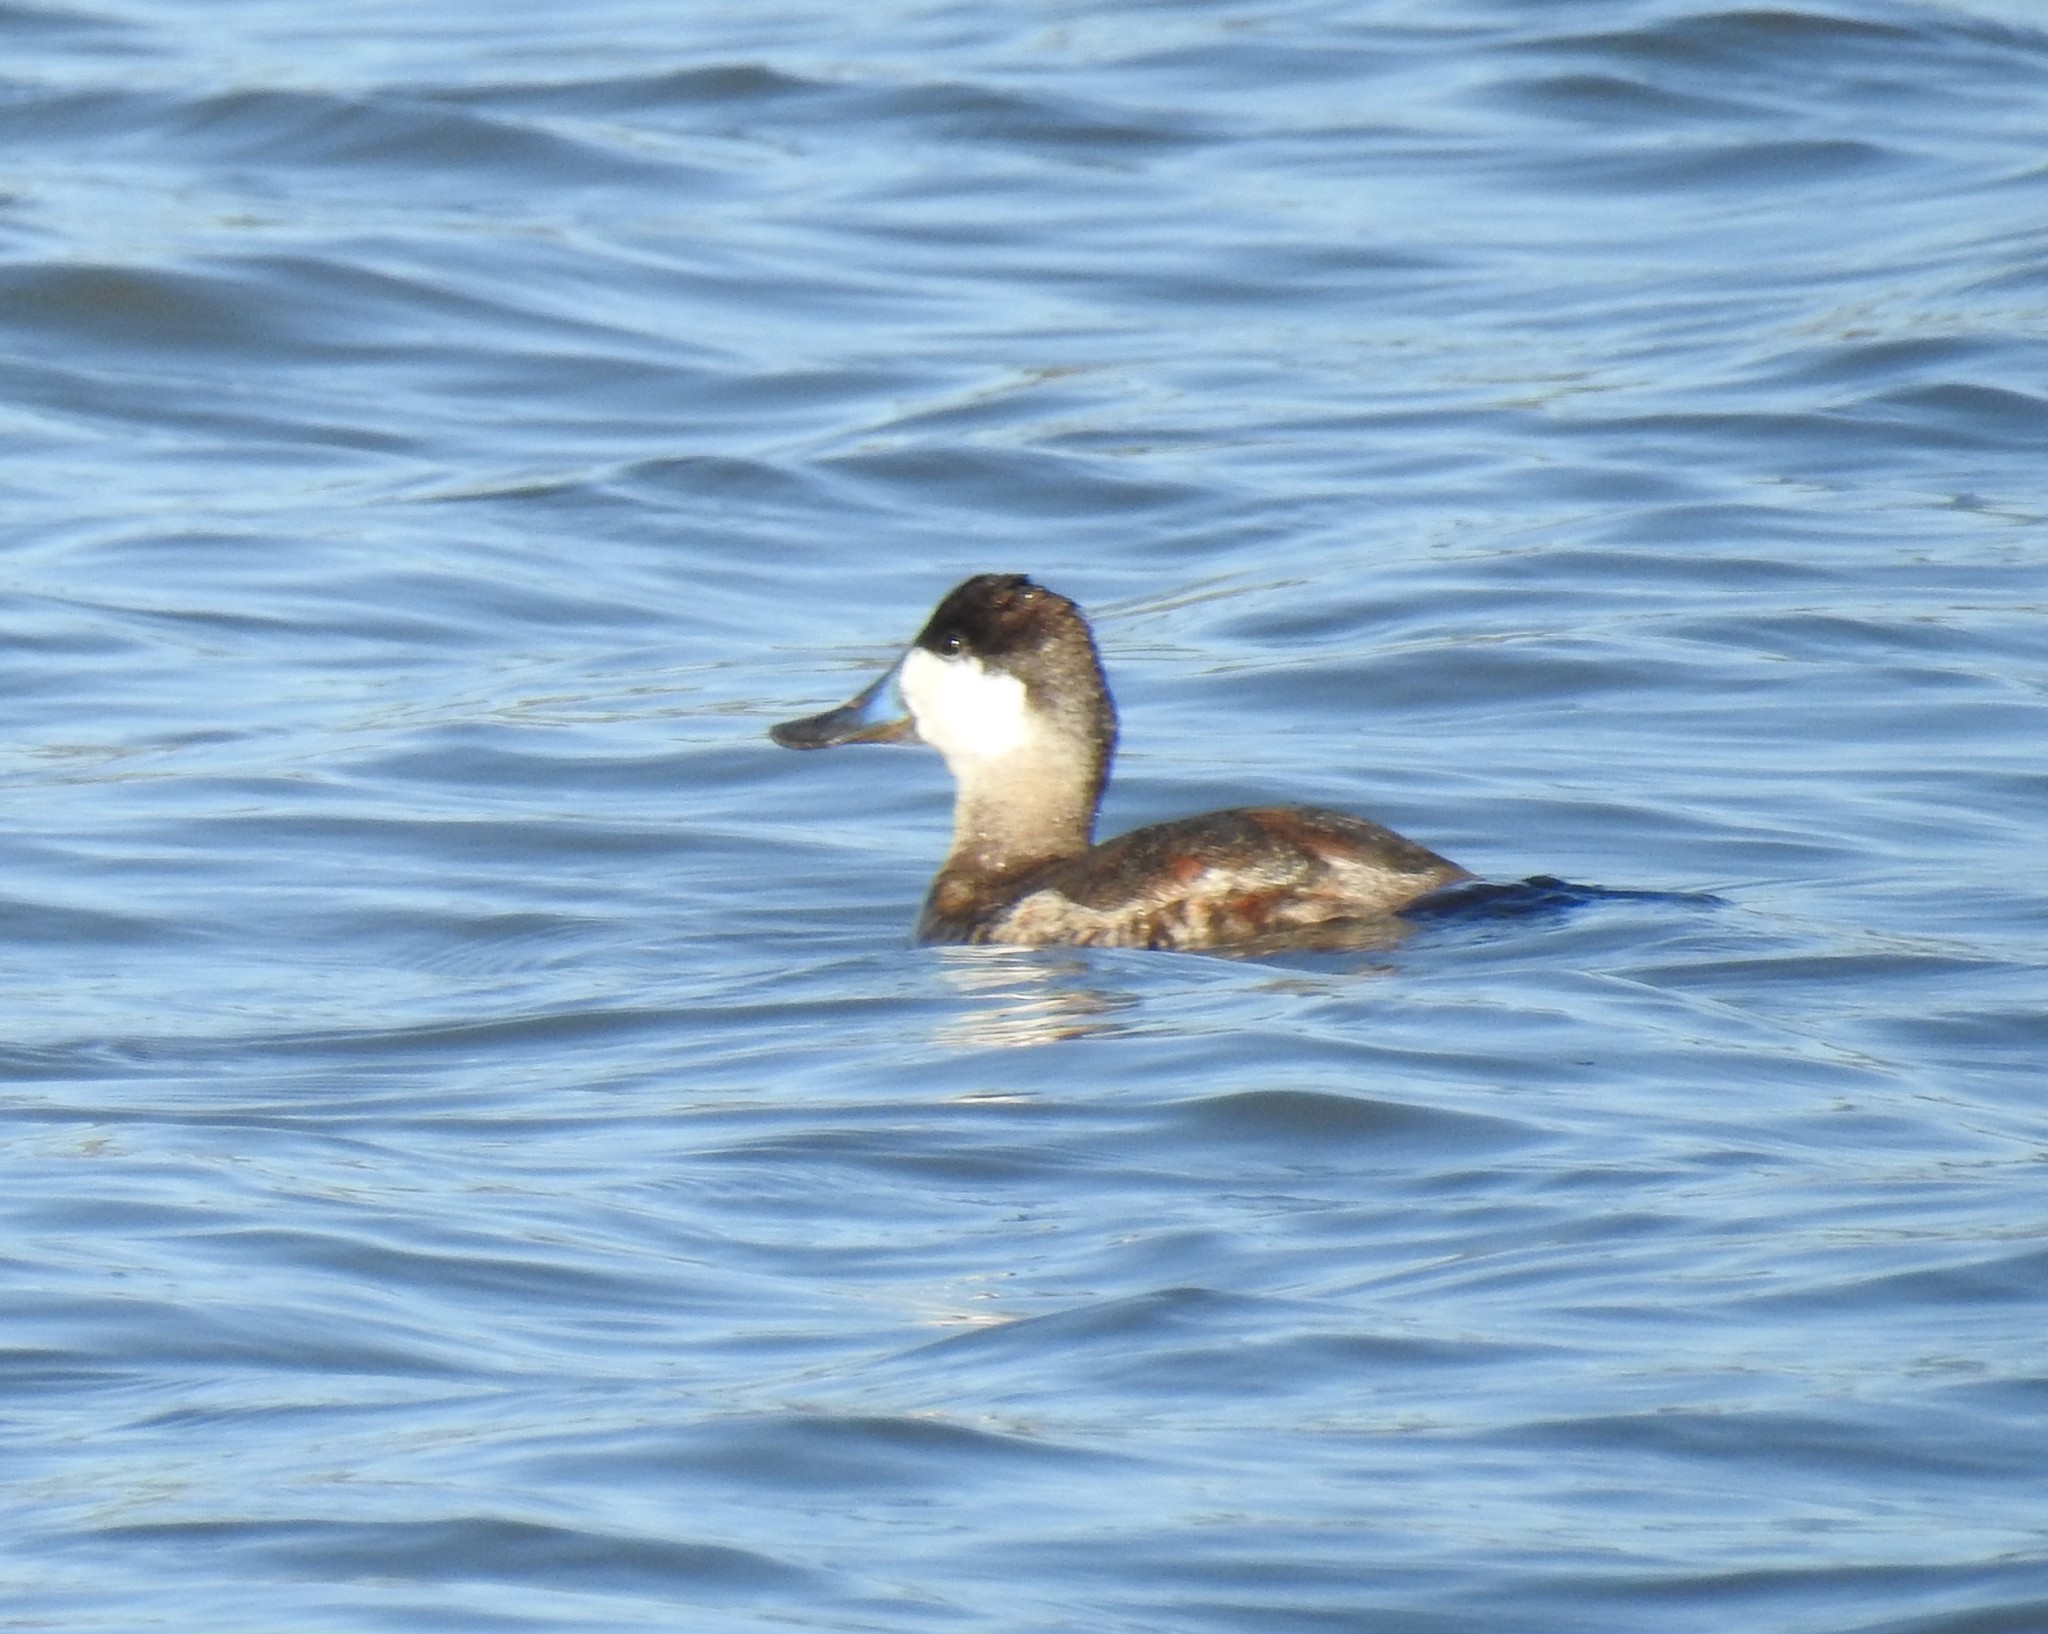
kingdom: Animalia
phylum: Chordata
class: Aves
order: Anseriformes
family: Anatidae
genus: Oxyura
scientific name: Oxyura jamaicensis
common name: Ruddy duck
